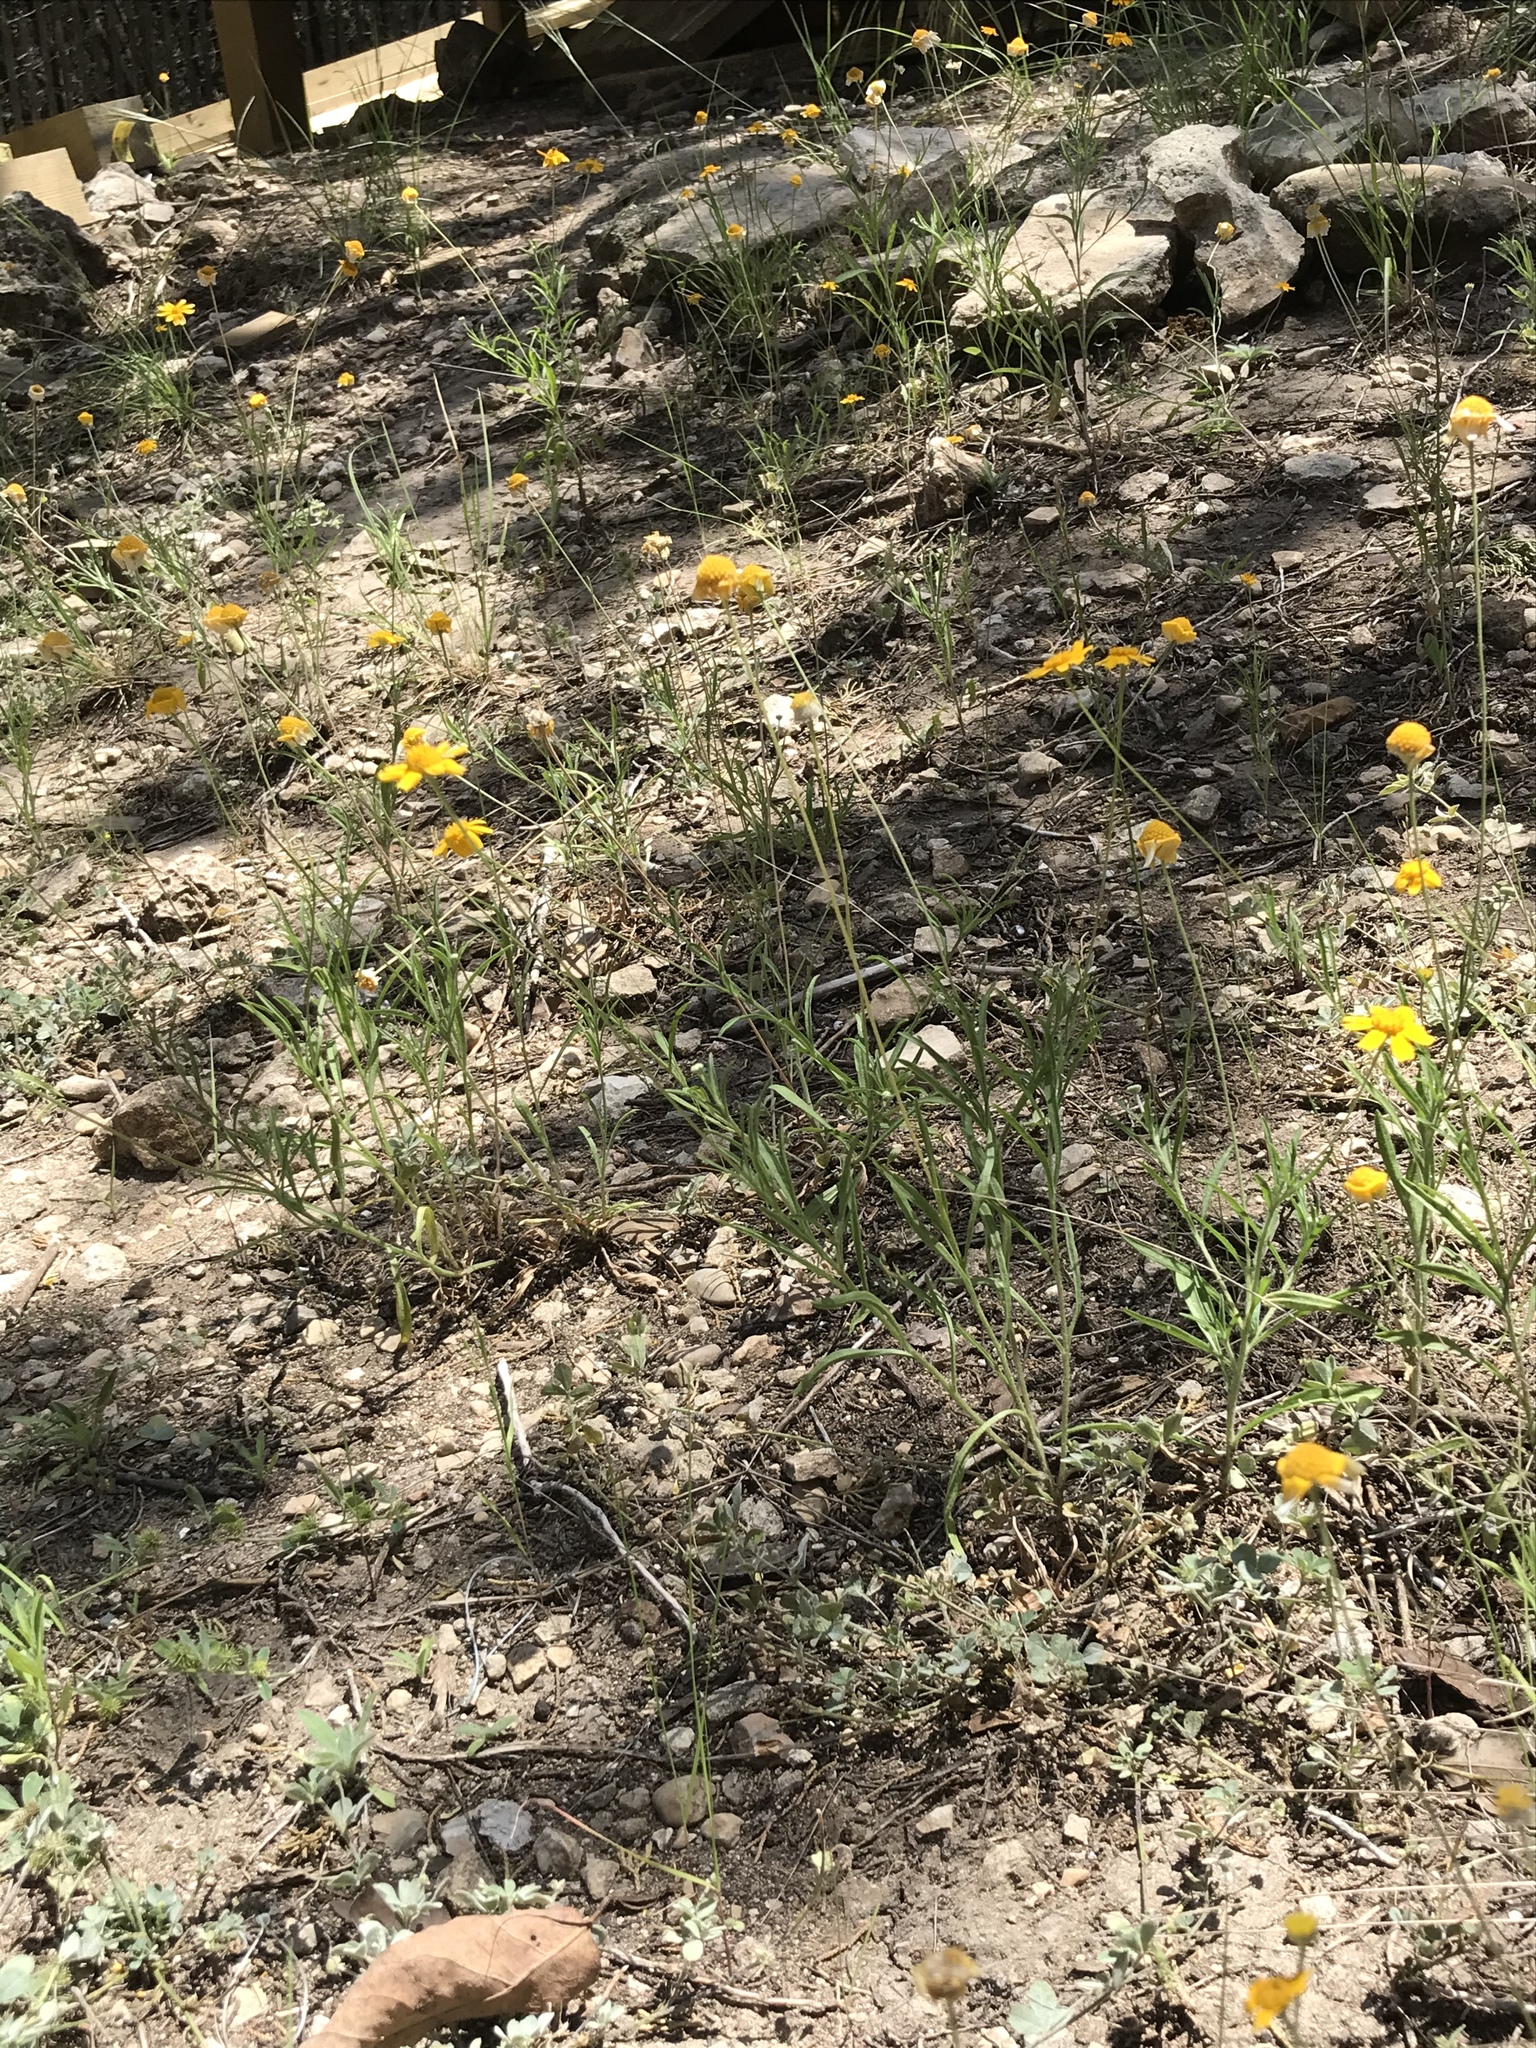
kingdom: Plantae
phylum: Tracheophyta
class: Magnoliopsida
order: Asterales
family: Asteraceae
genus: Tetraneuris
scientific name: Tetraneuris linearifolia
